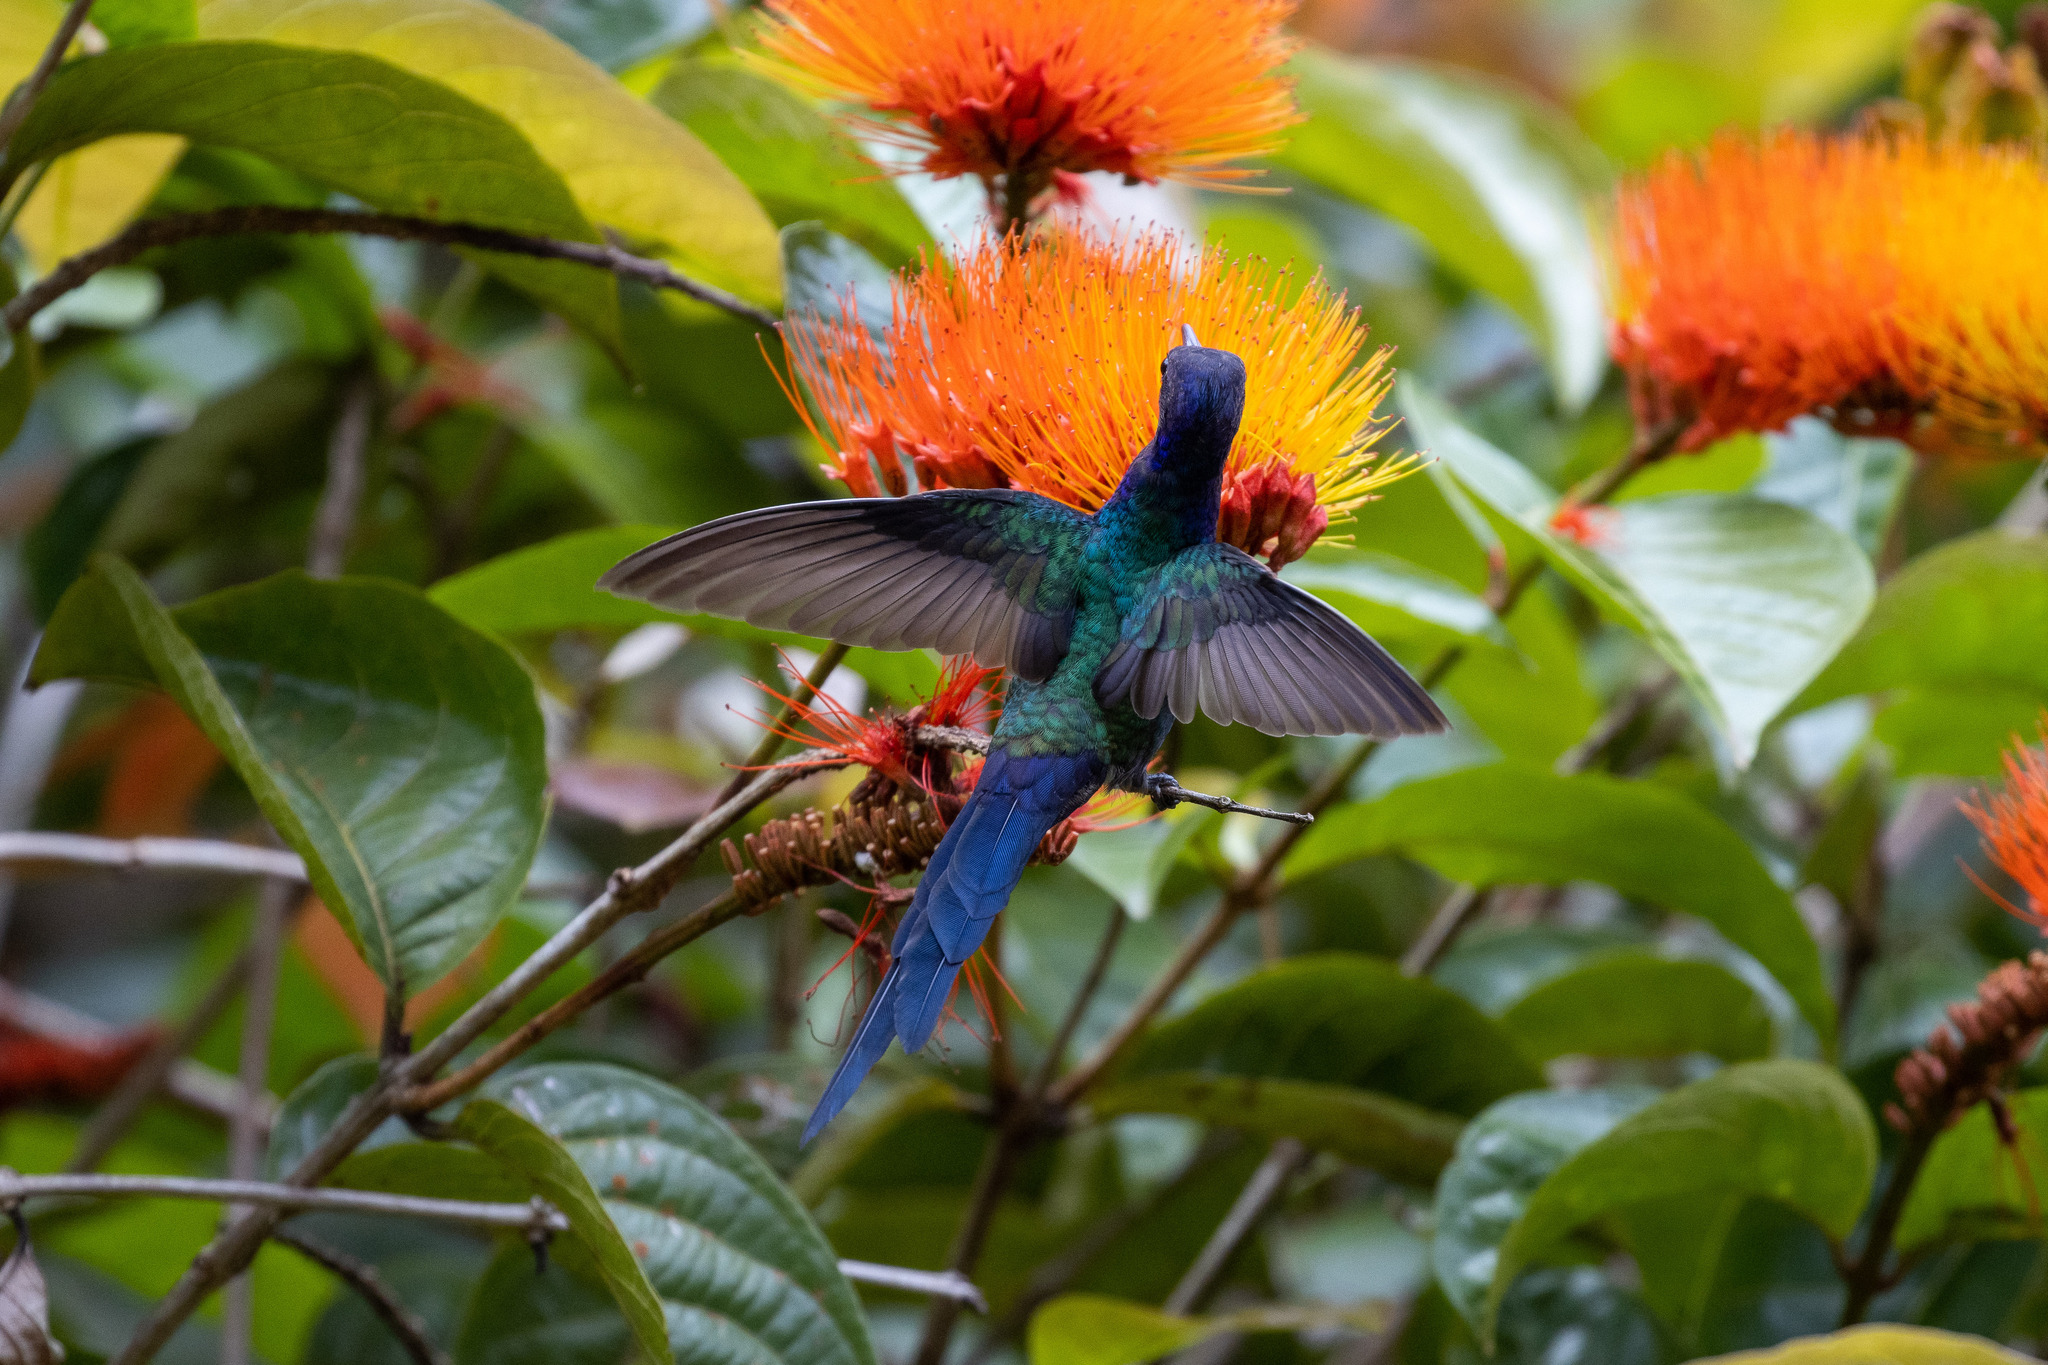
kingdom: Animalia
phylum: Chordata
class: Aves
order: Apodiformes
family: Trochilidae
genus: Eupetomena
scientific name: Eupetomena macroura
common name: Swallow-tailed hummingbird
